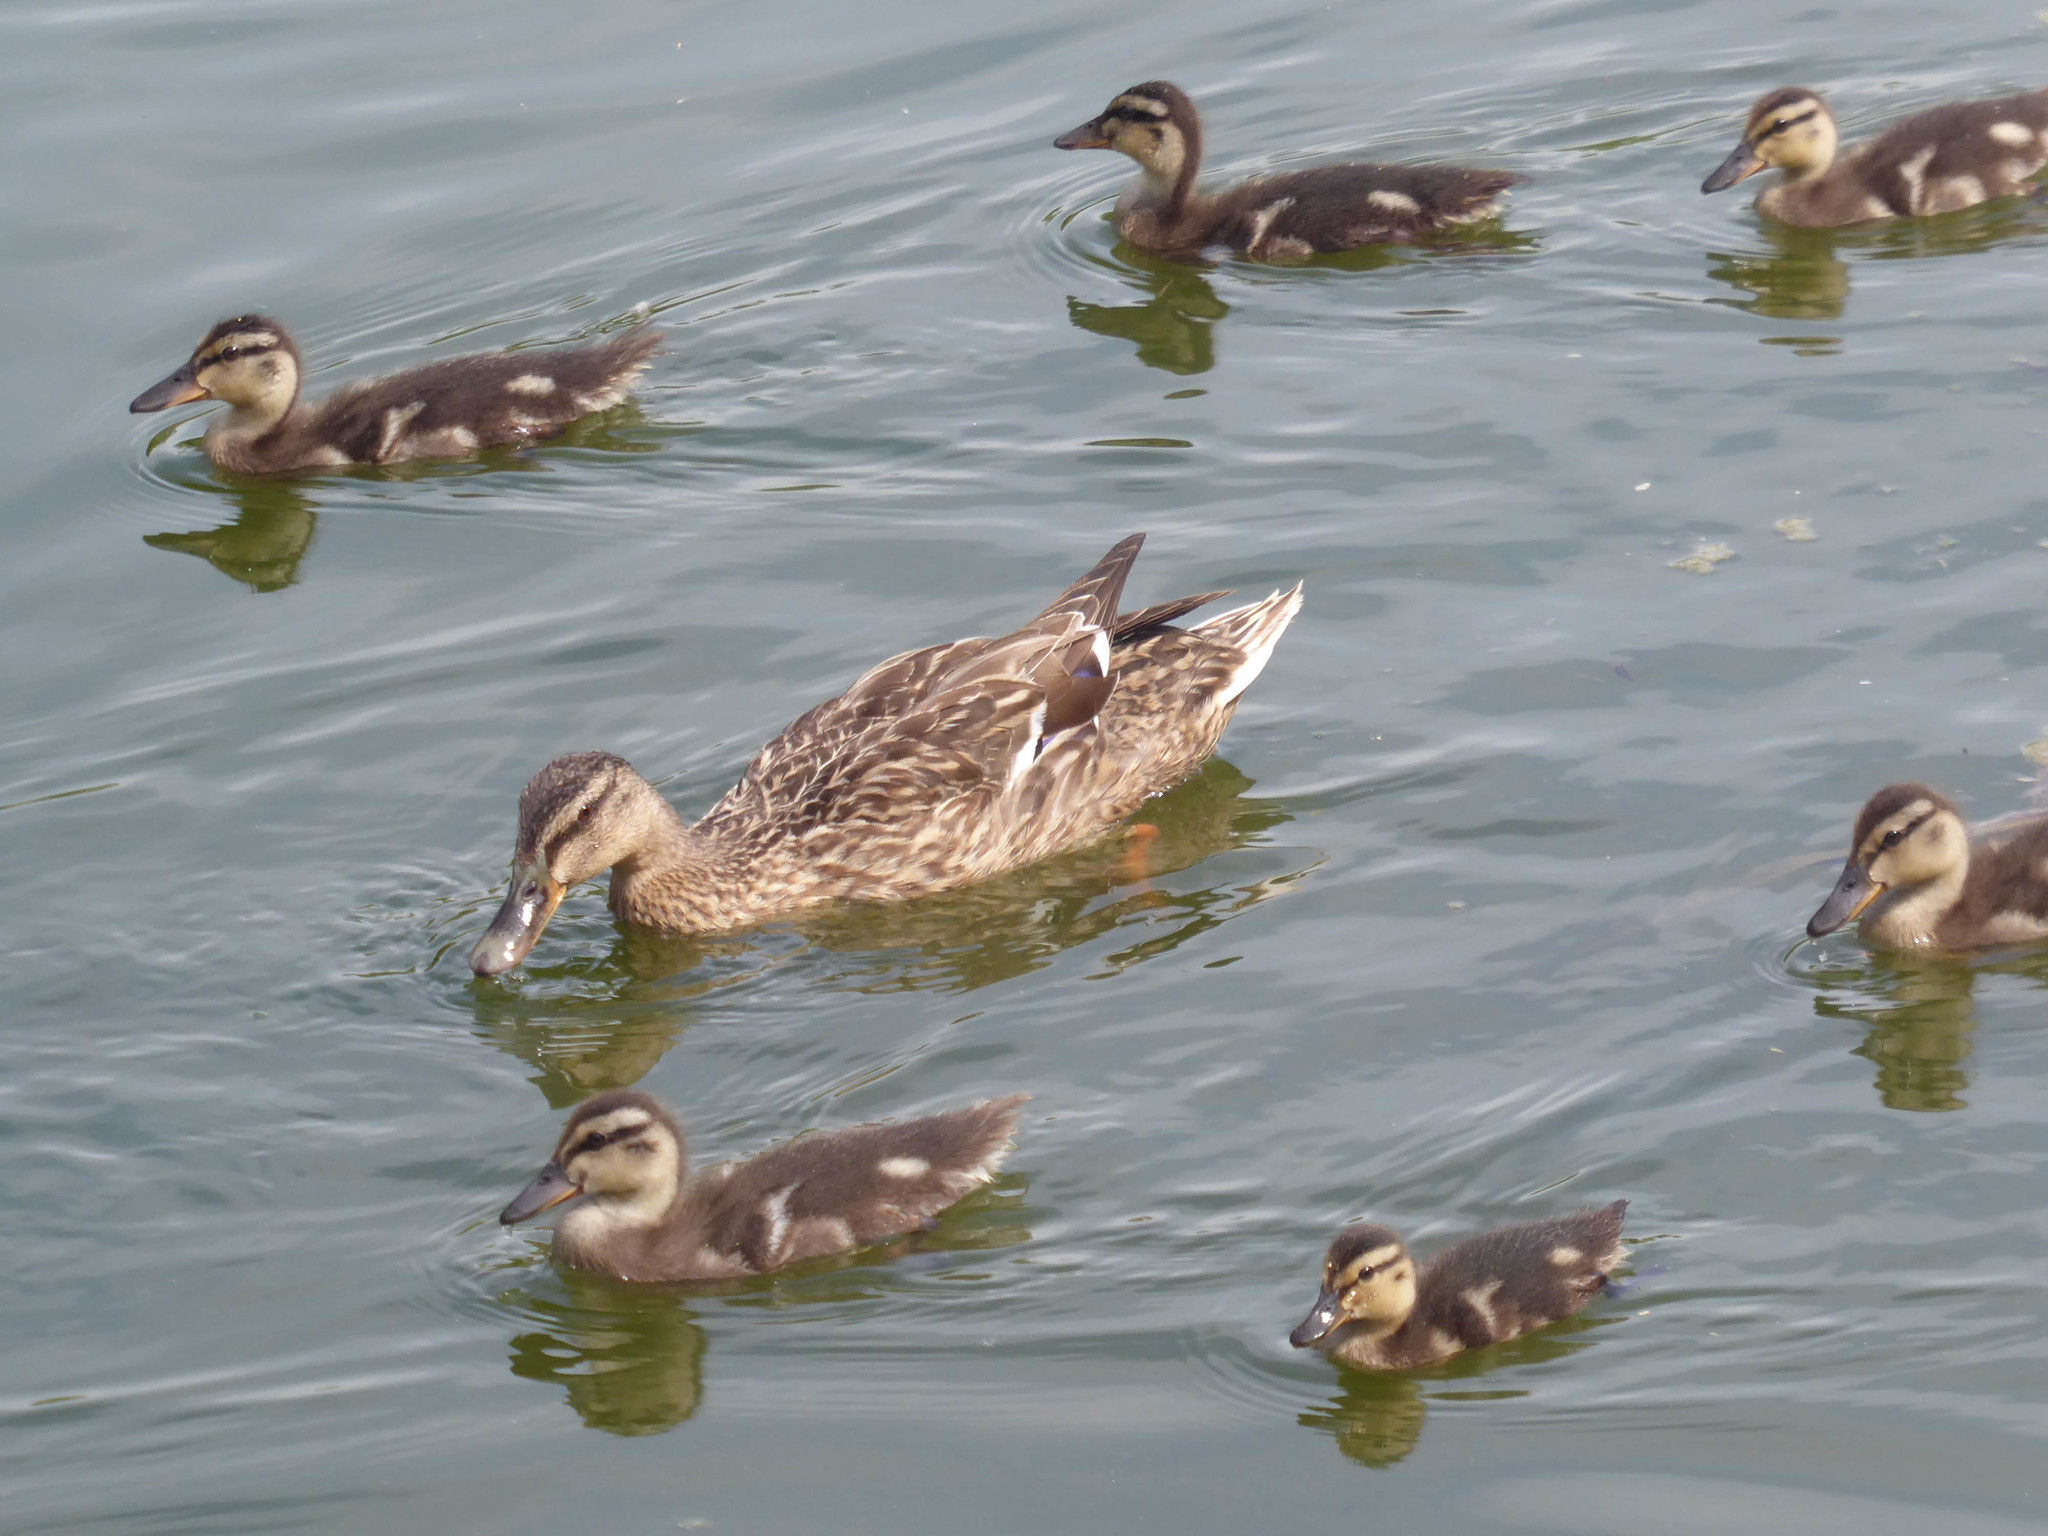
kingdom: Animalia
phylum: Chordata
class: Aves
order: Anseriformes
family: Anatidae
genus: Anas
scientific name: Anas platyrhynchos
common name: Mallard
